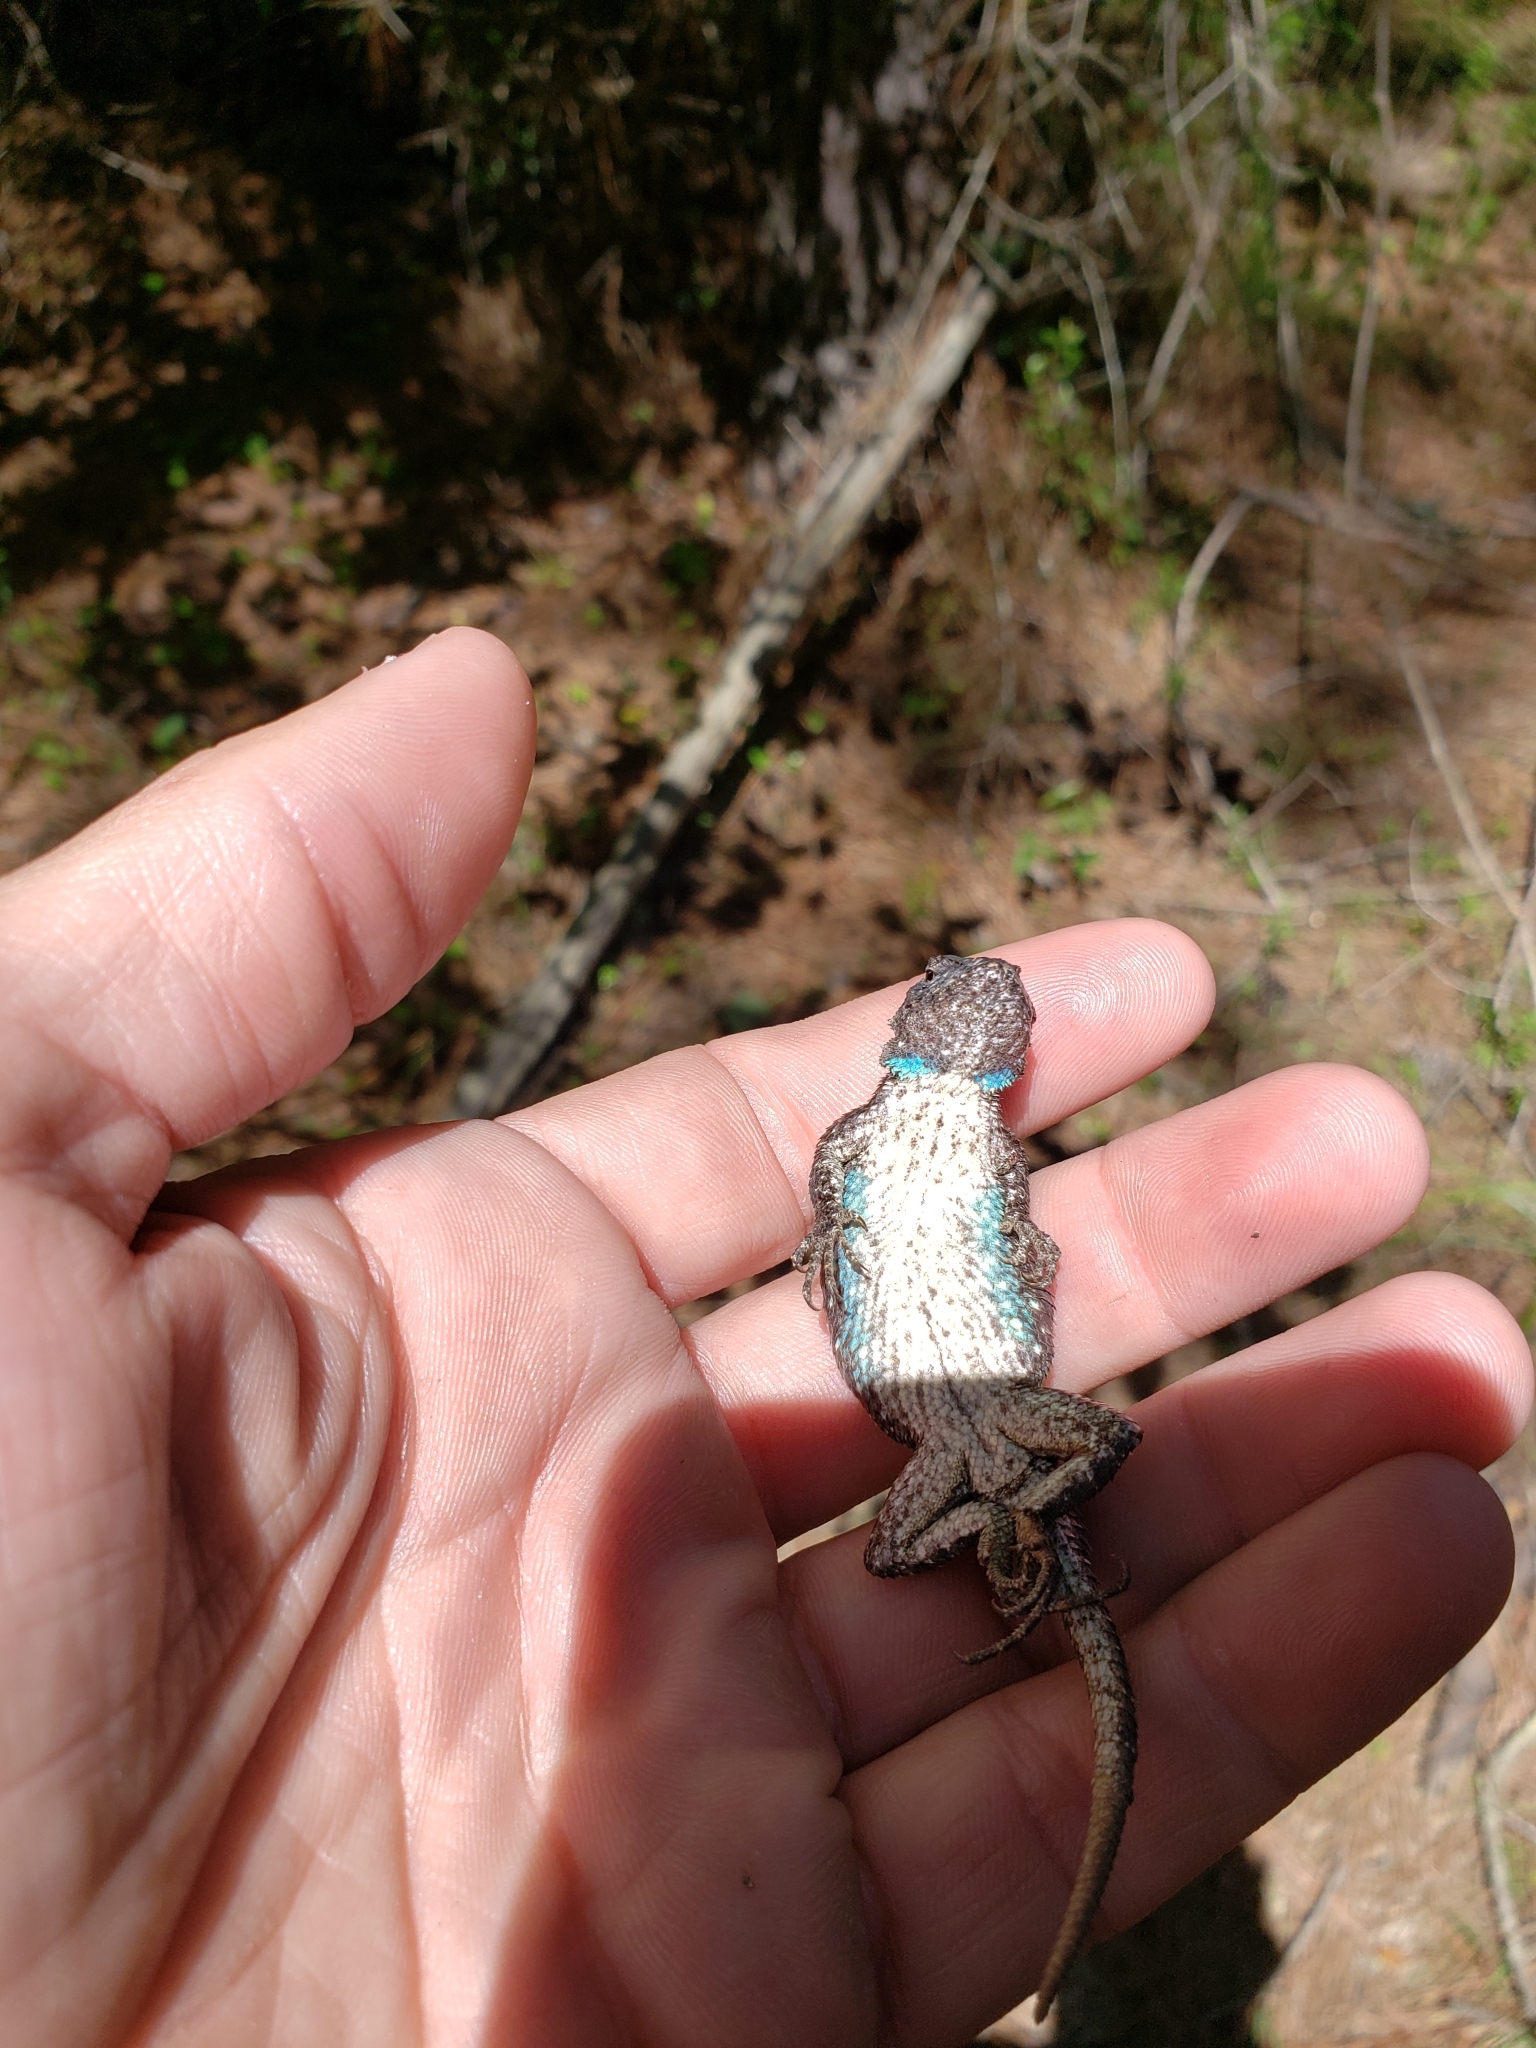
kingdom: Animalia
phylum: Chordata
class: Squamata
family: Phrynosomatidae
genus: Sceloporus
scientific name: Sceloporus consobrinus
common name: Southern prairie lizard
